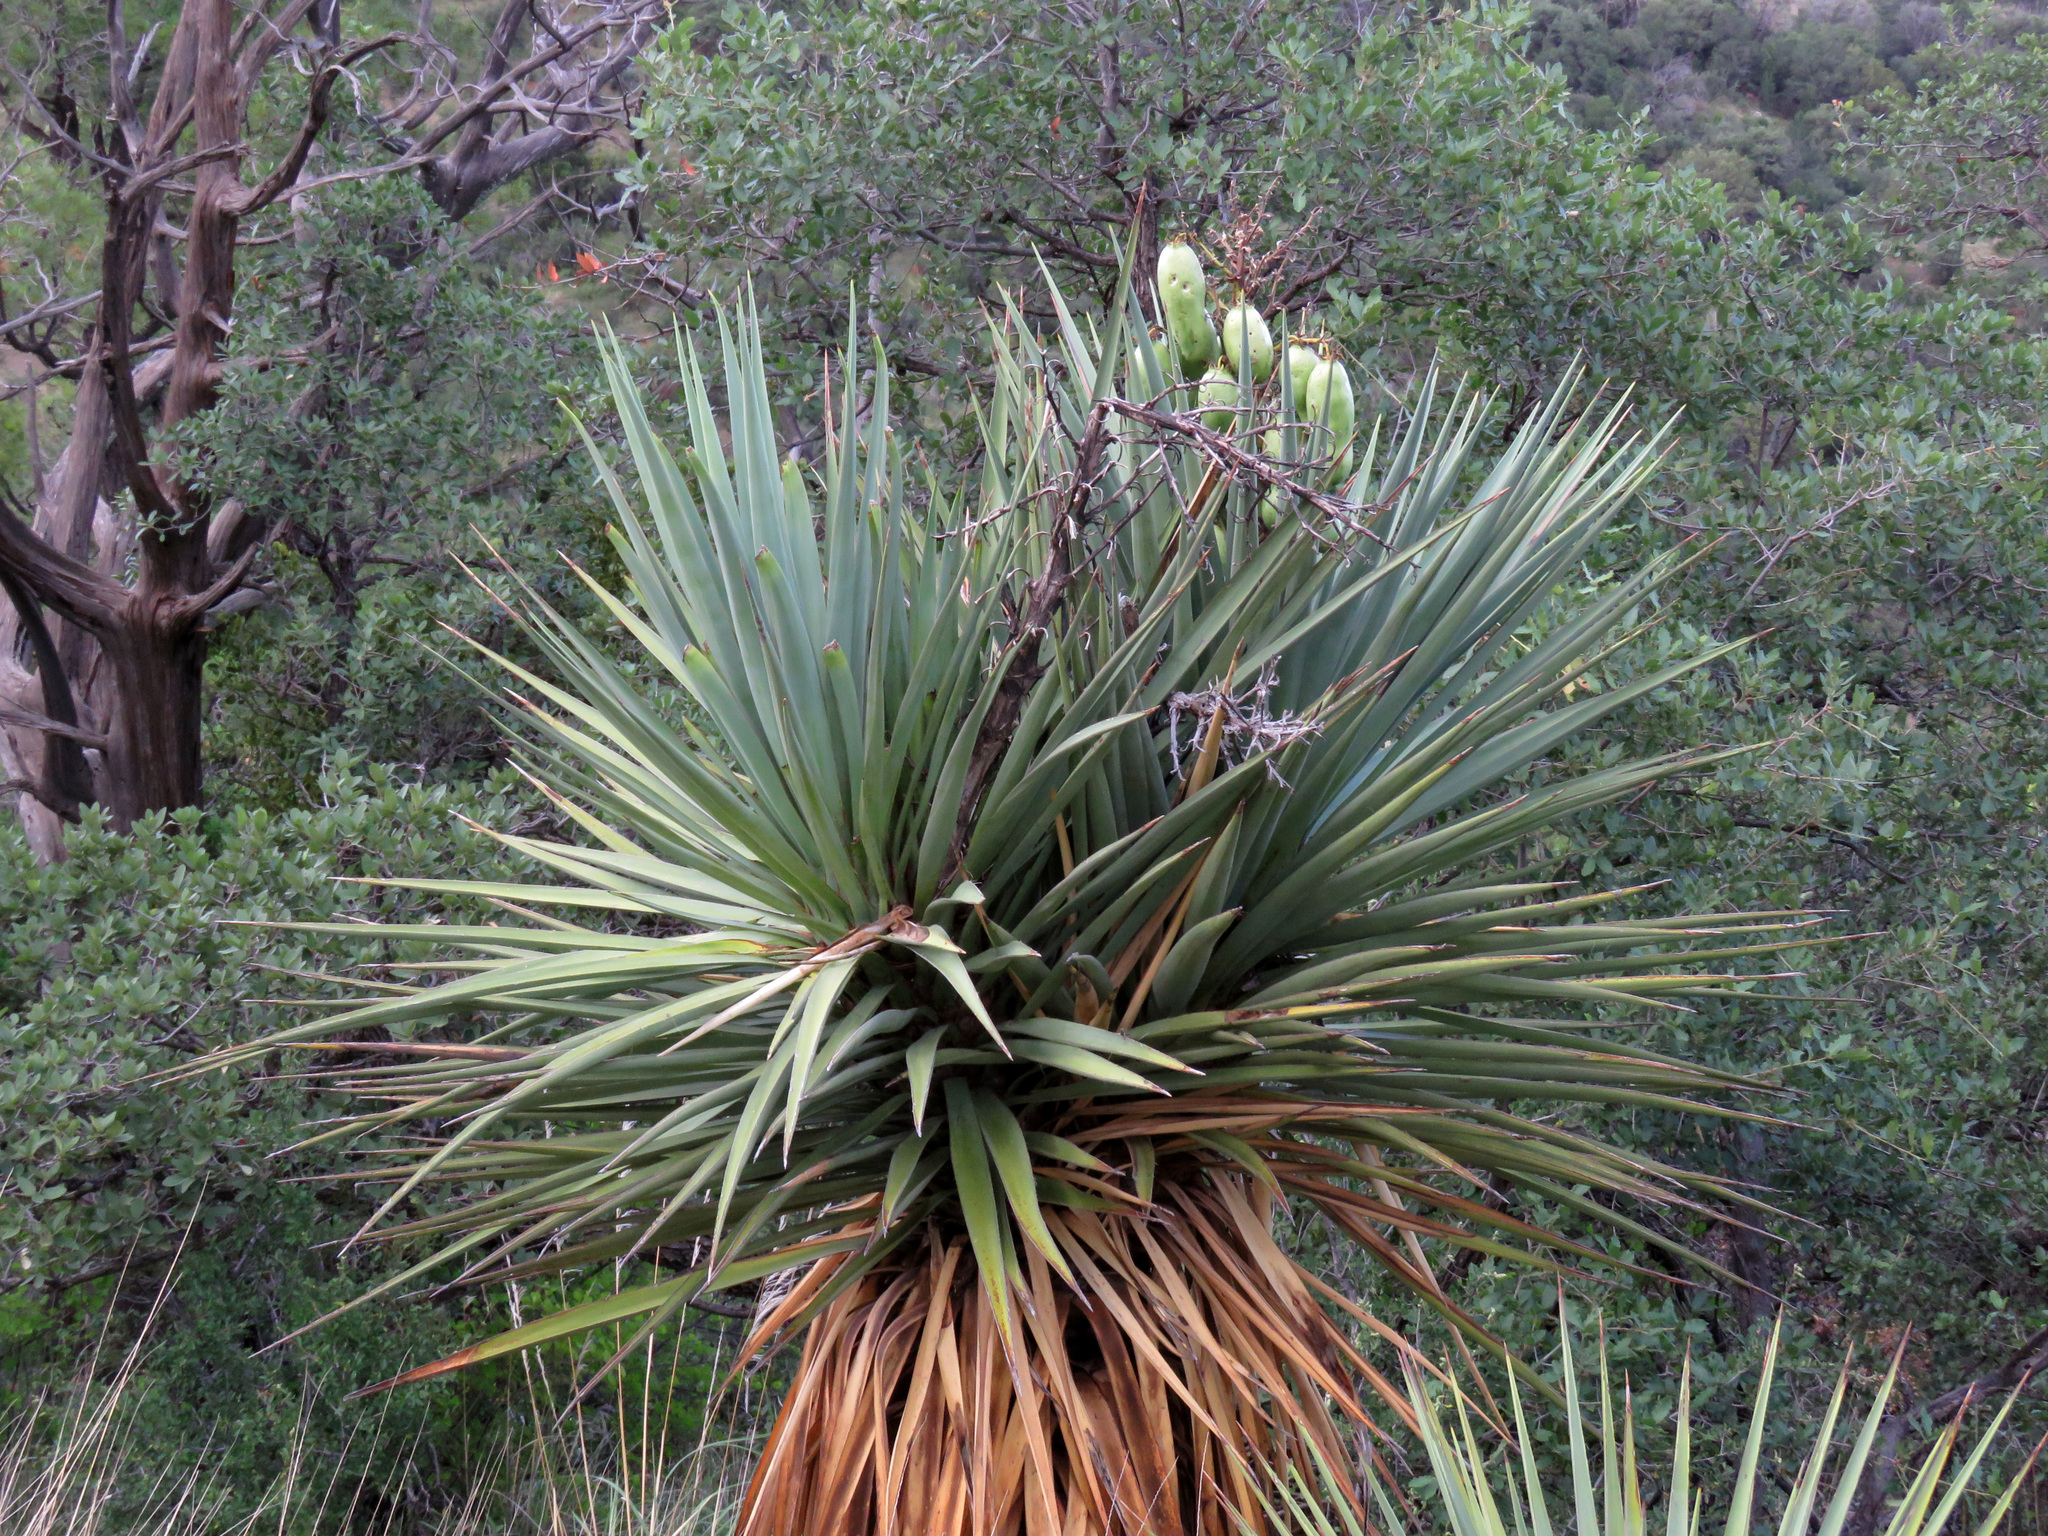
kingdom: Plantae
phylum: Tracheophyta
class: Liliopsida
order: Asparagales
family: Asparagaceae
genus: Yucca
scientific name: Yucca madrensis
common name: Hoary yucca
